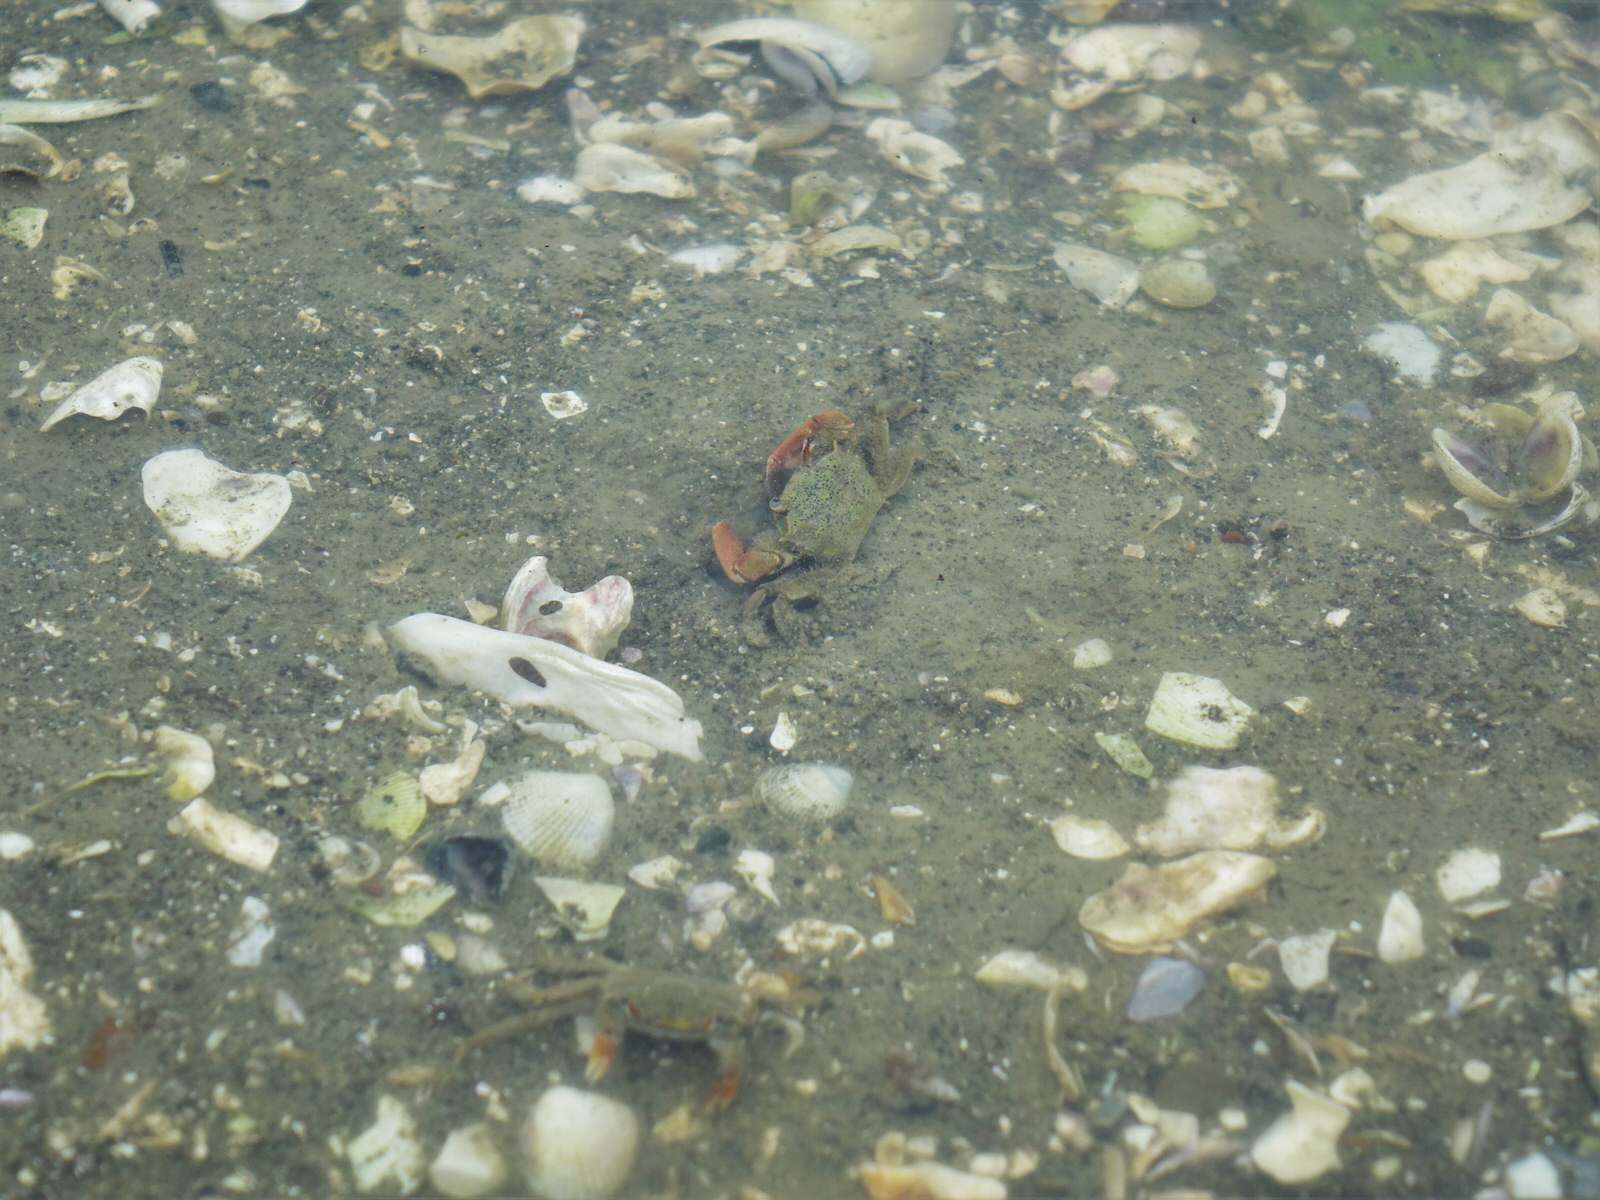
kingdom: Animalia
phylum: Arthropoda
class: Malacostraca
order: Decapoda
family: Macrophthalmidae
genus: Hemiplax
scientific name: Hemiplax hirtipes
